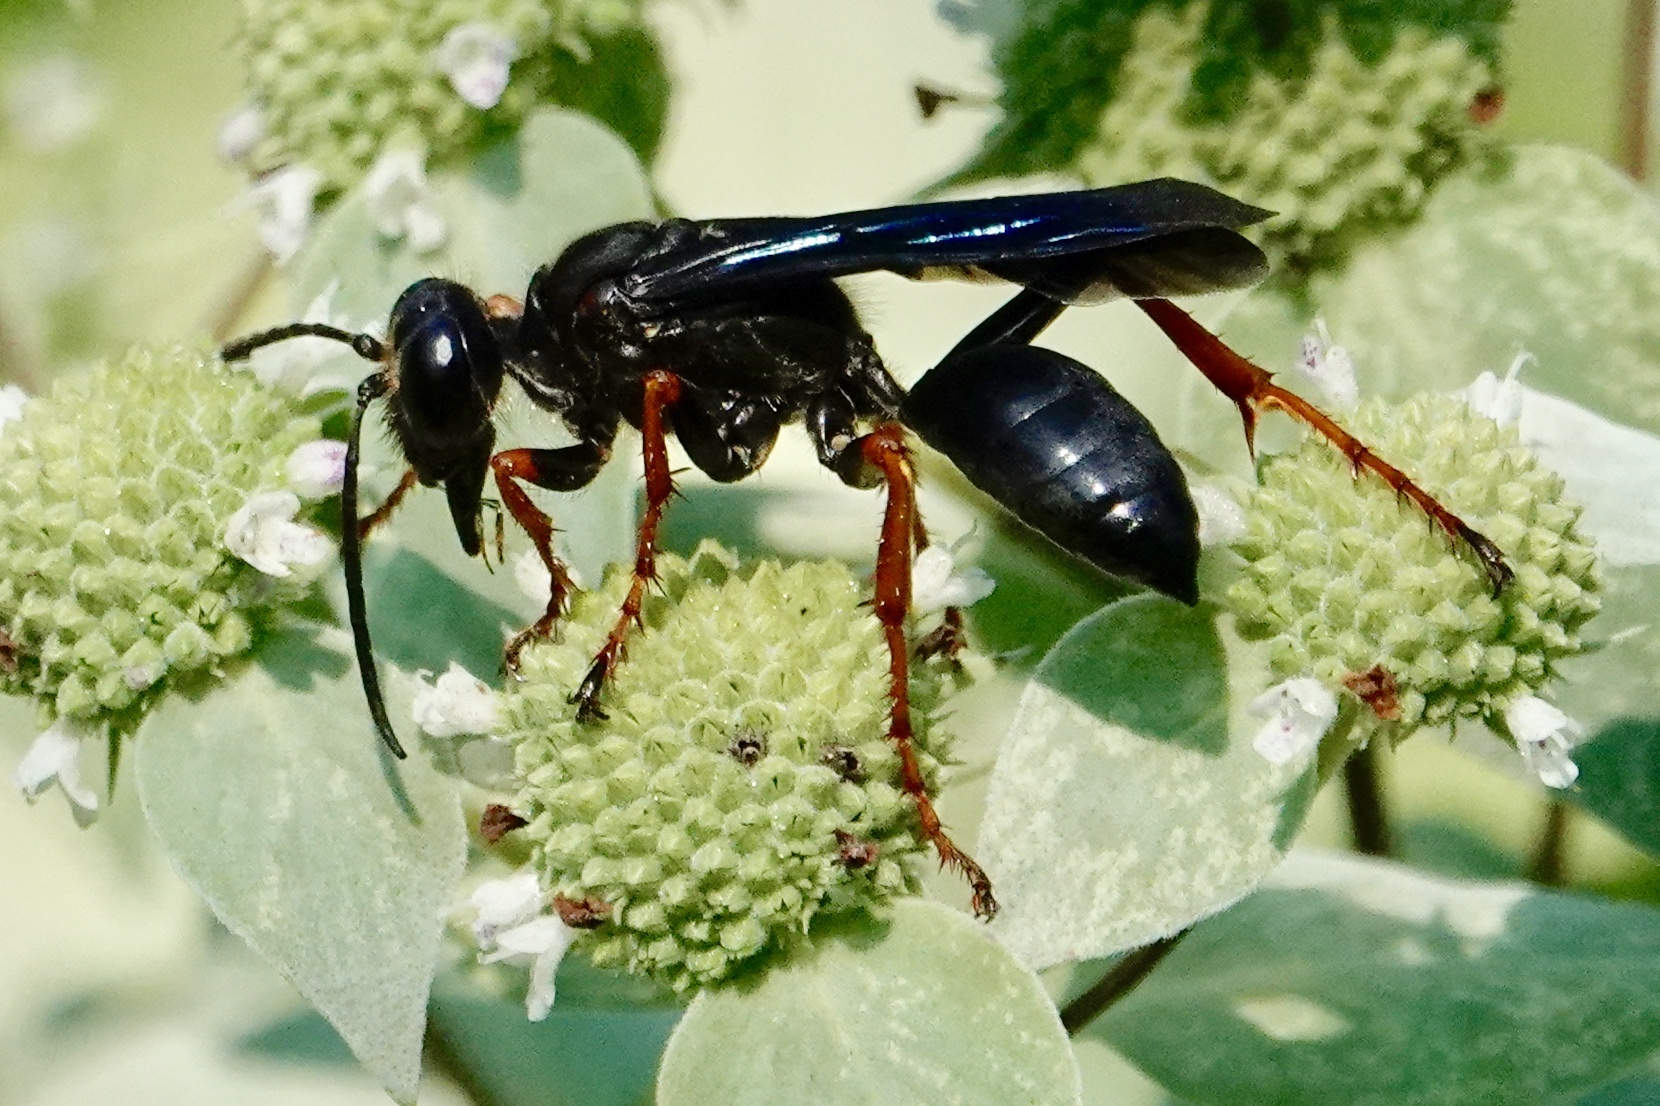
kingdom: Animalia
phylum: Arthropoda
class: Insecta
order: Hymenoptera
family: Sphecidae
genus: Sphex
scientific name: Sphex nudus
